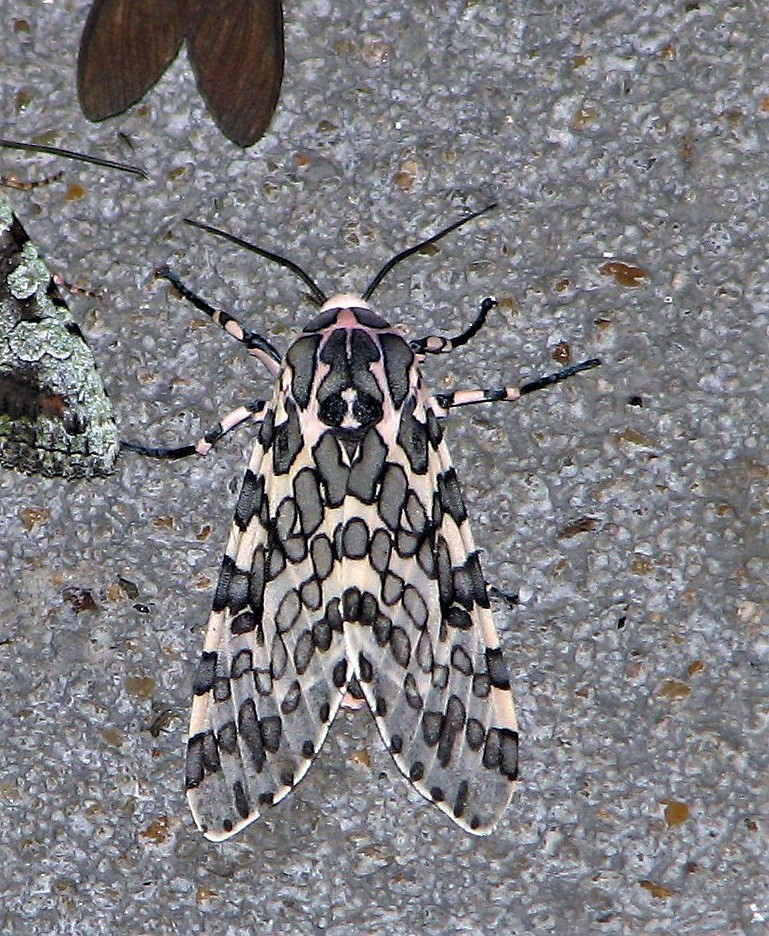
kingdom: Animalia
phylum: Arthropoda
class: Insecta
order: Lepidoptera
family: Erebidae
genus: Hypercompe
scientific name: Hypercompe kinkelini
